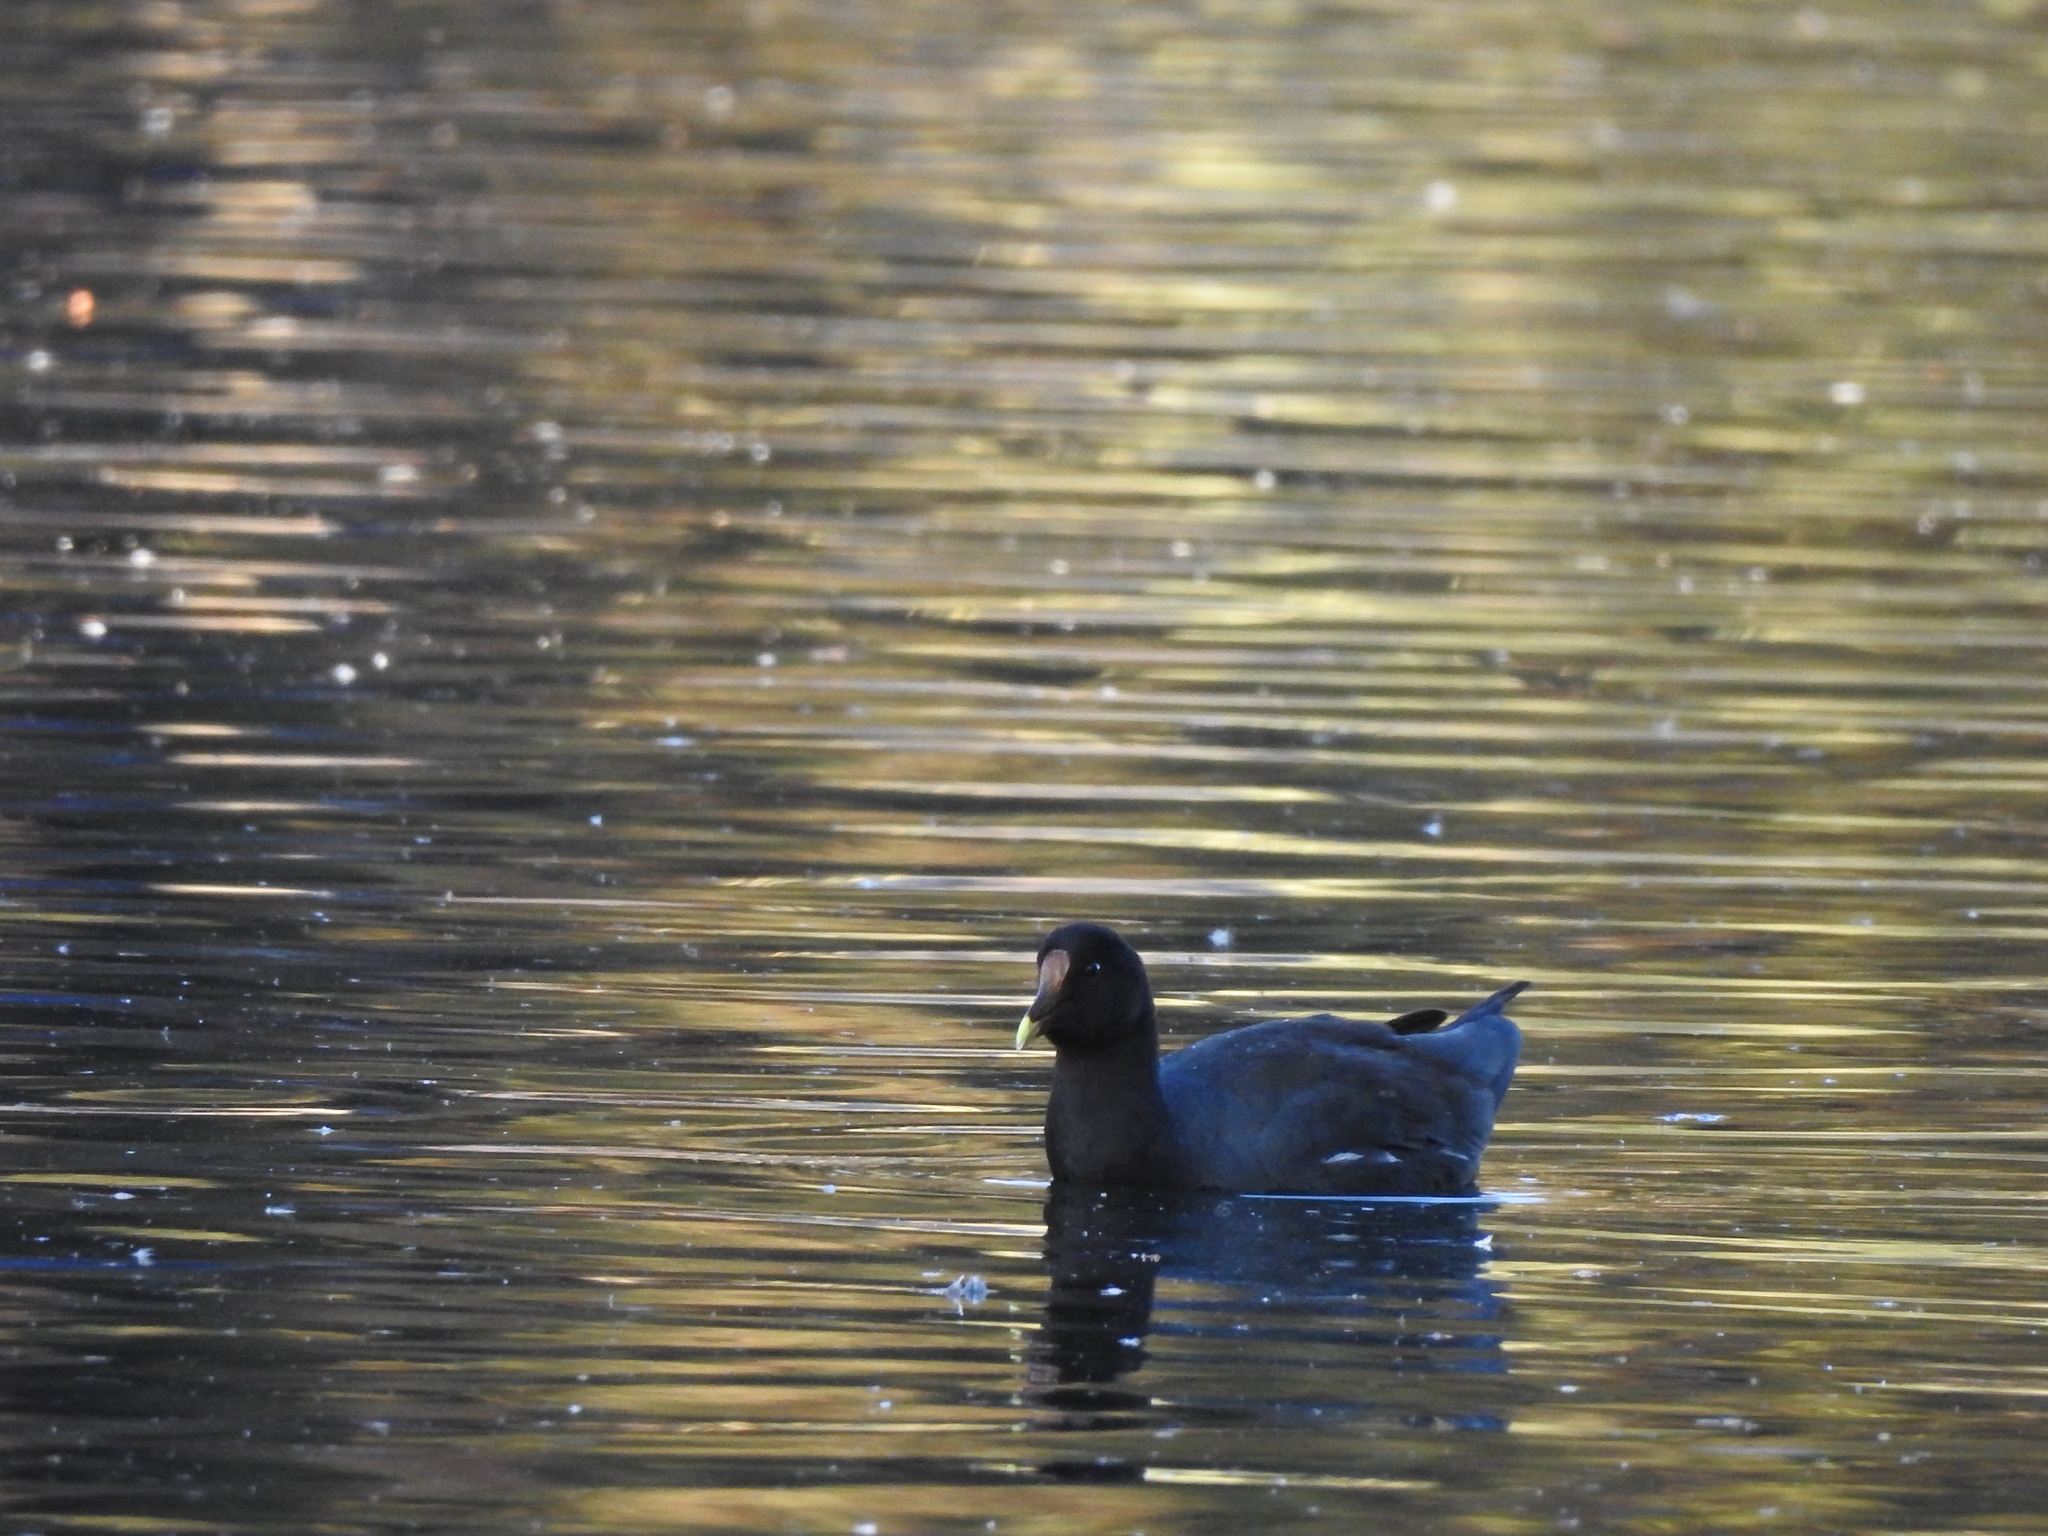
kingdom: Animalia
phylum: Chordata
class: Aves
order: Gruiformes
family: Rallidae
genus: Fulica
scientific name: Fulica leucoptera
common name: White-winged coot
